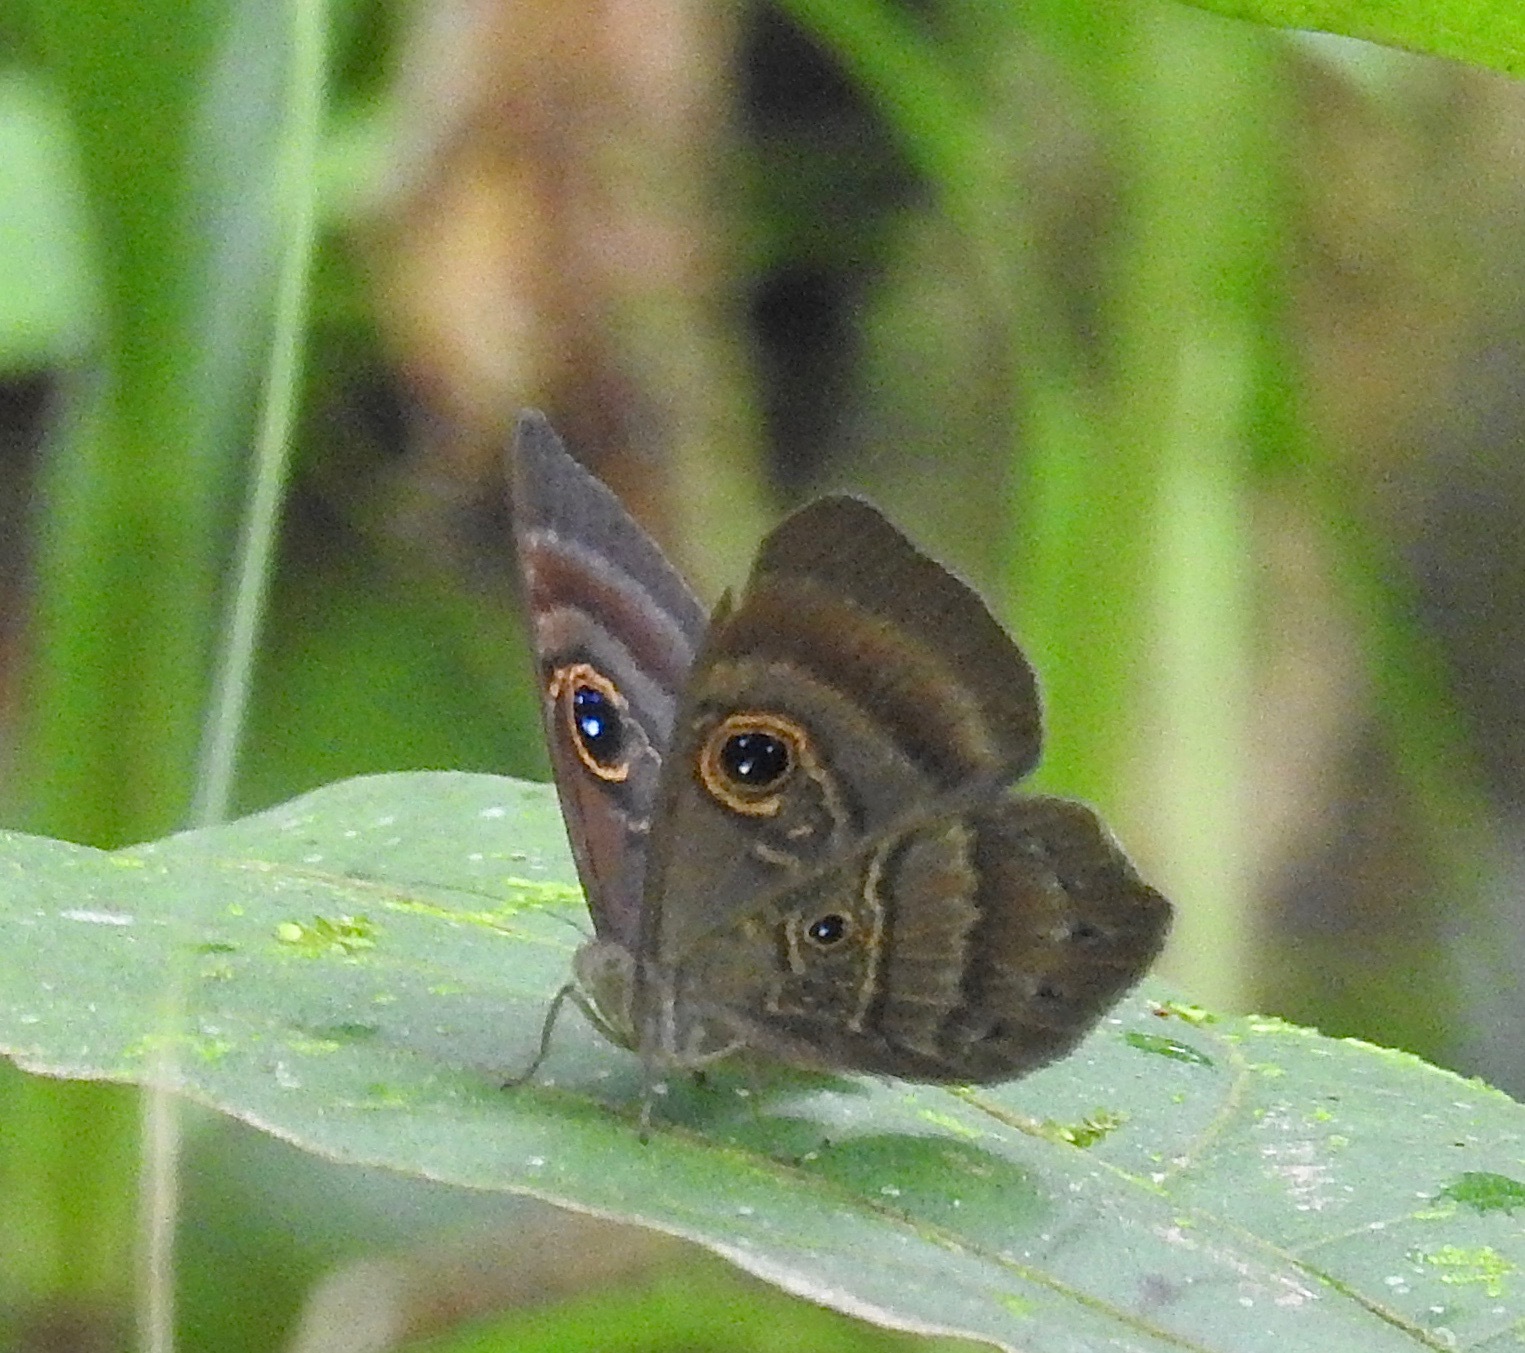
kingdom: Animalia
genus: Mesosemia
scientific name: Mesosemia carissima
